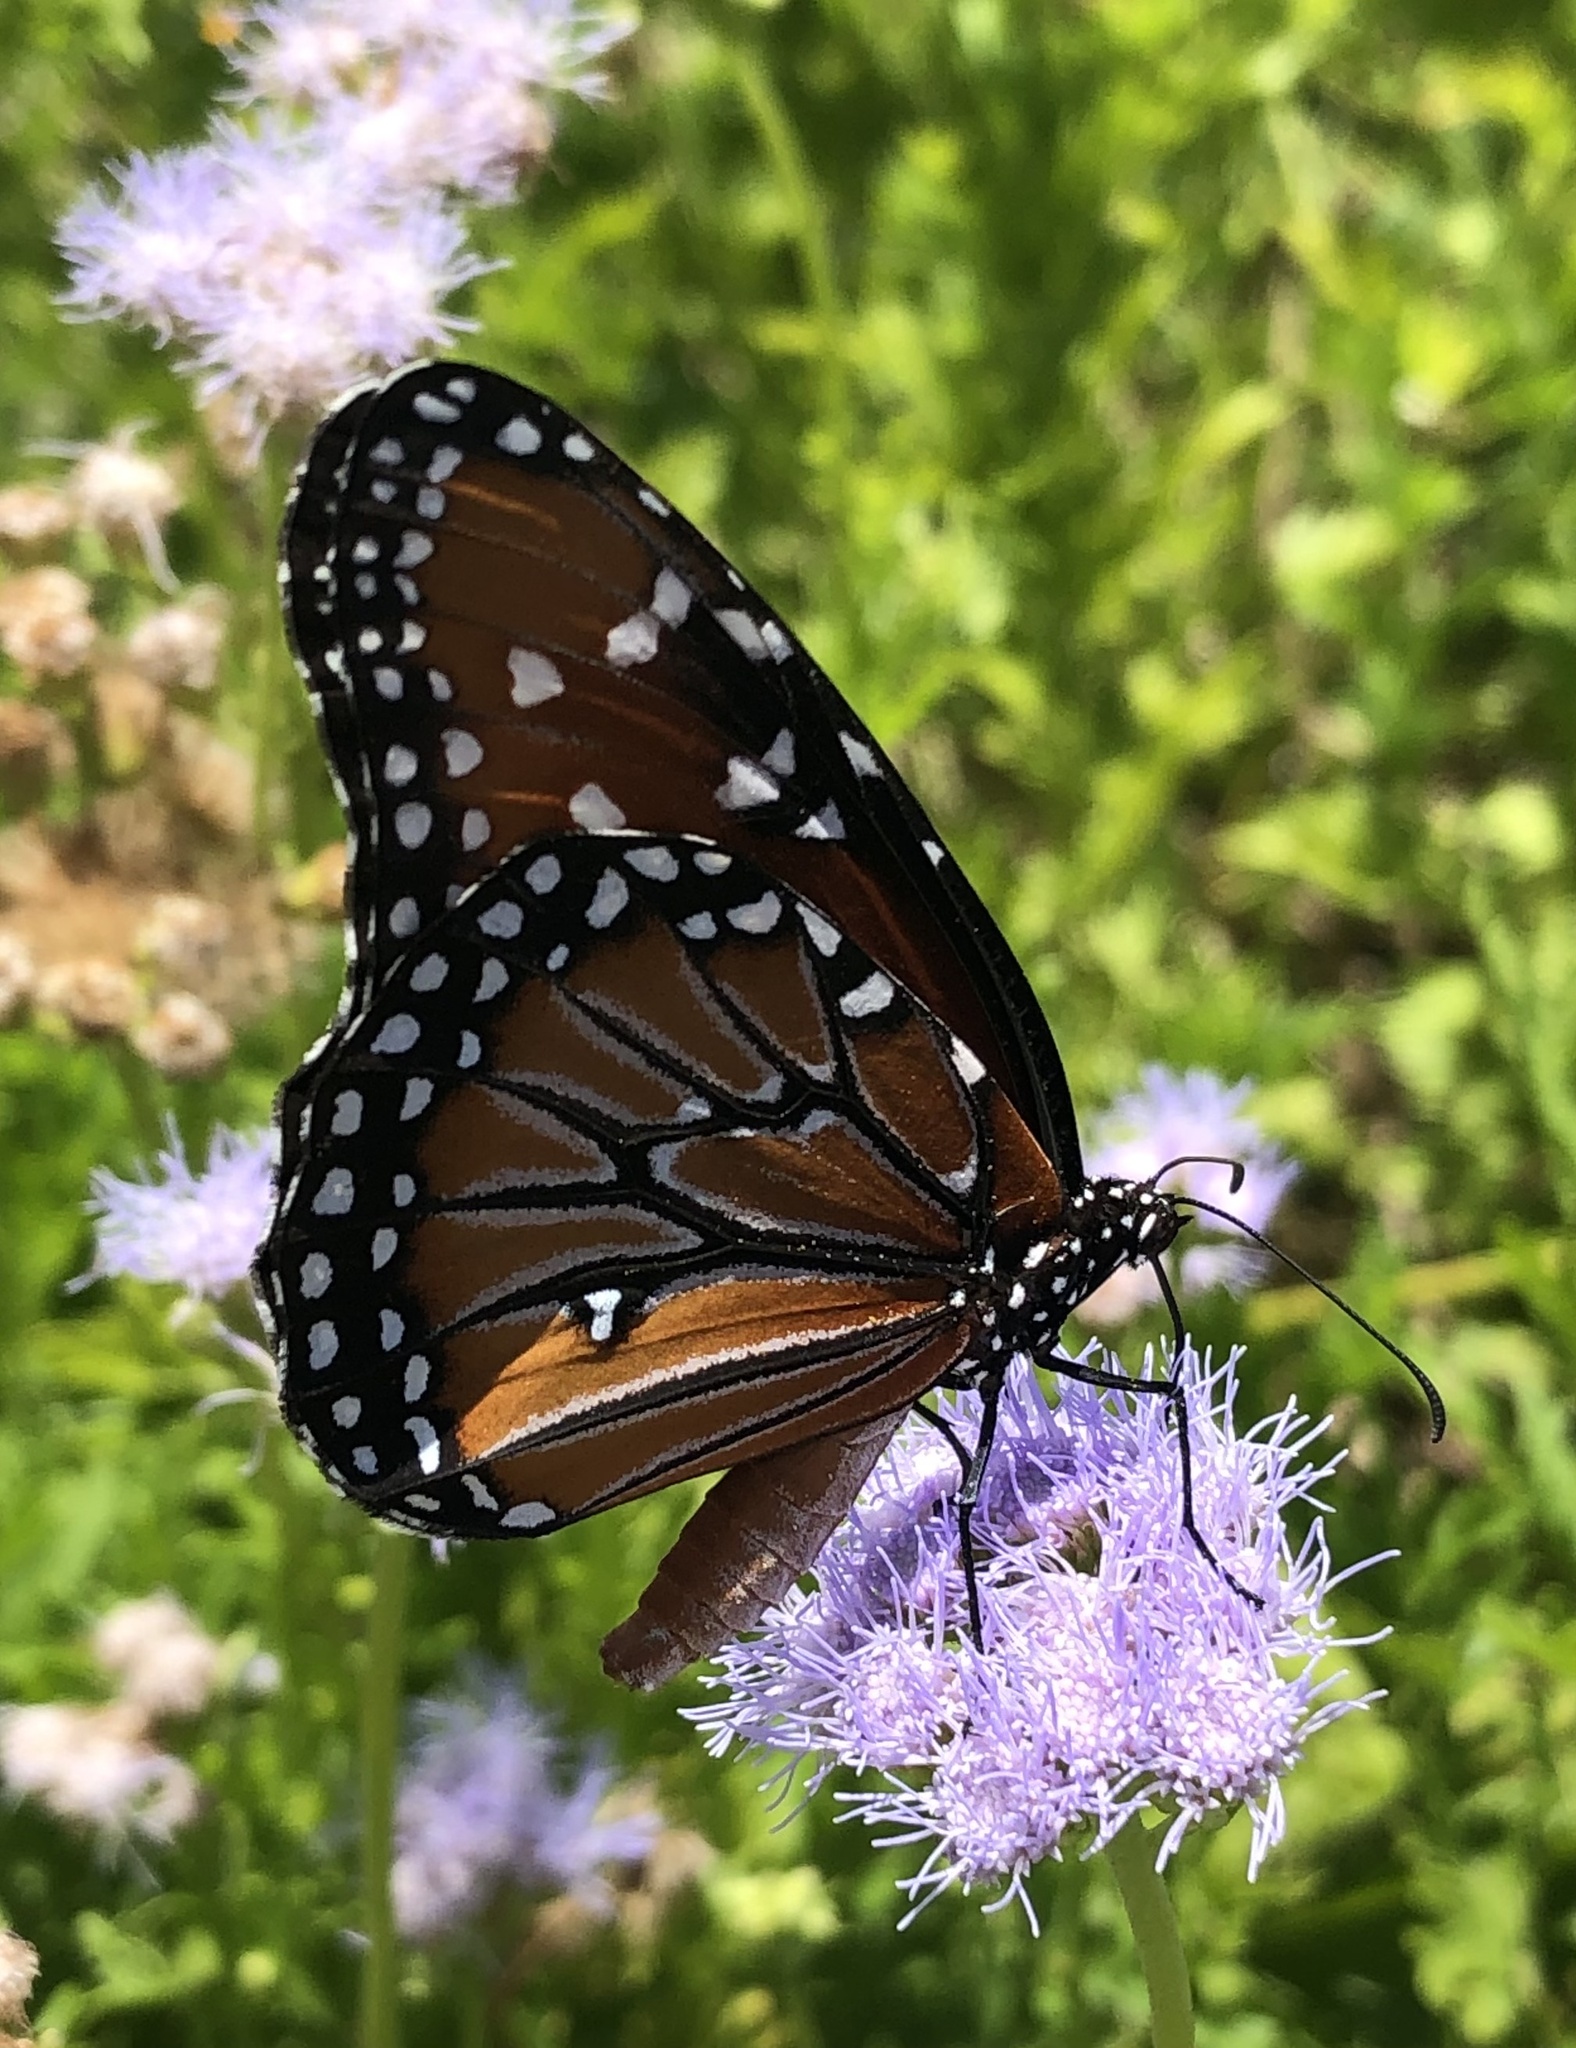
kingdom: Animalia
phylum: Arthropoda
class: Insecta
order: Lepidoptera
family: Nymphalidae
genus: Danaus
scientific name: Danaus gilippus
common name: Queen
